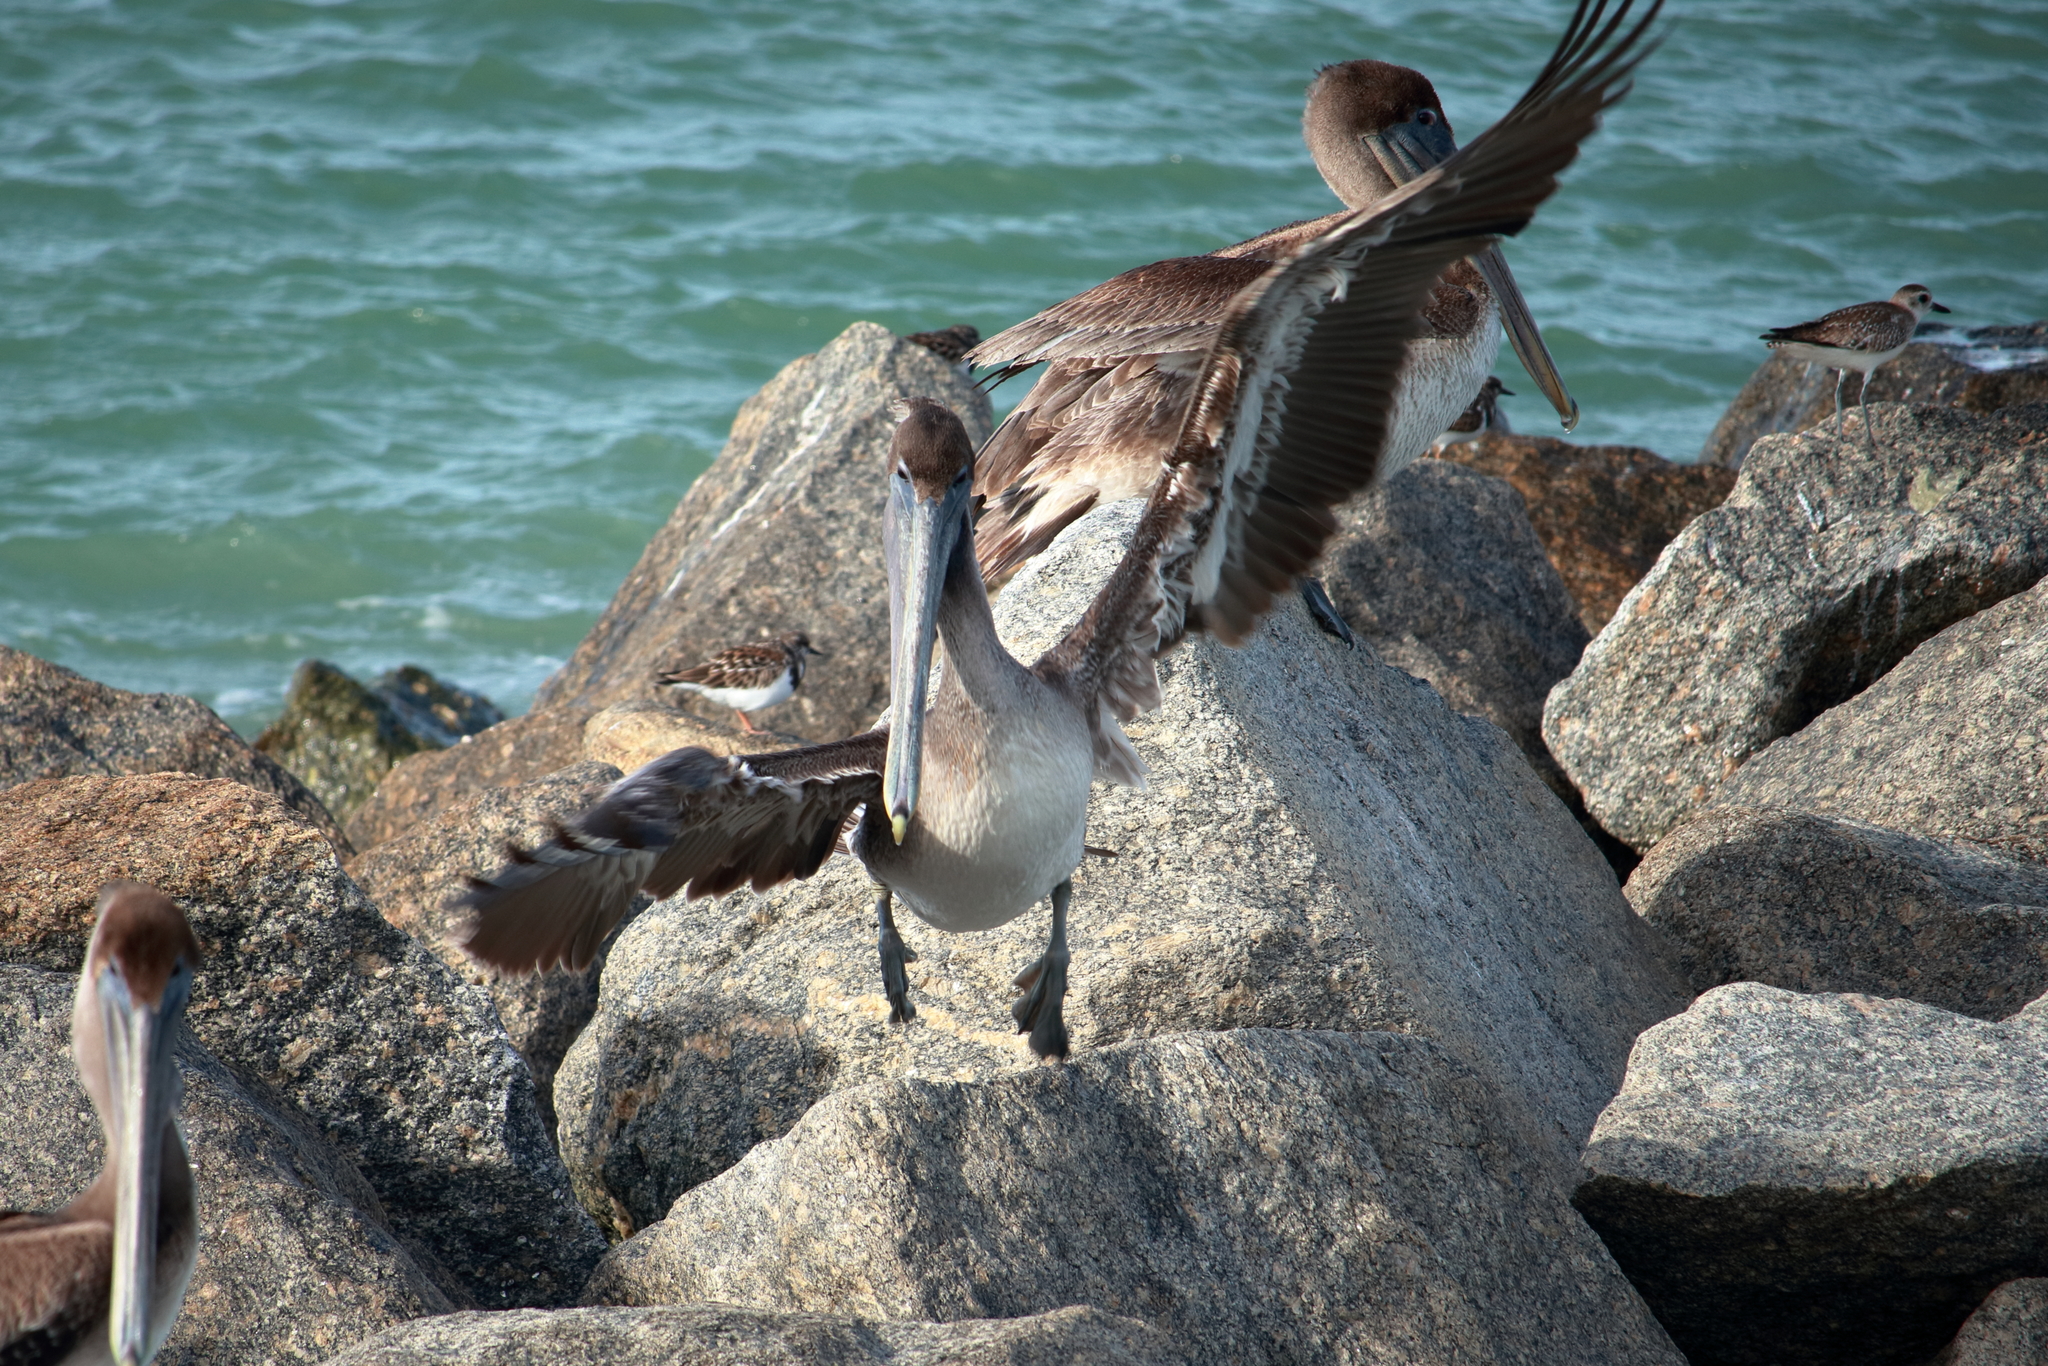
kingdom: Animalia
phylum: Chordata
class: Aves
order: Pelecaniformes
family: Pelecanidae
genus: Pelecanus
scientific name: Pelecanus occidentalis
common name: Brown pelican
